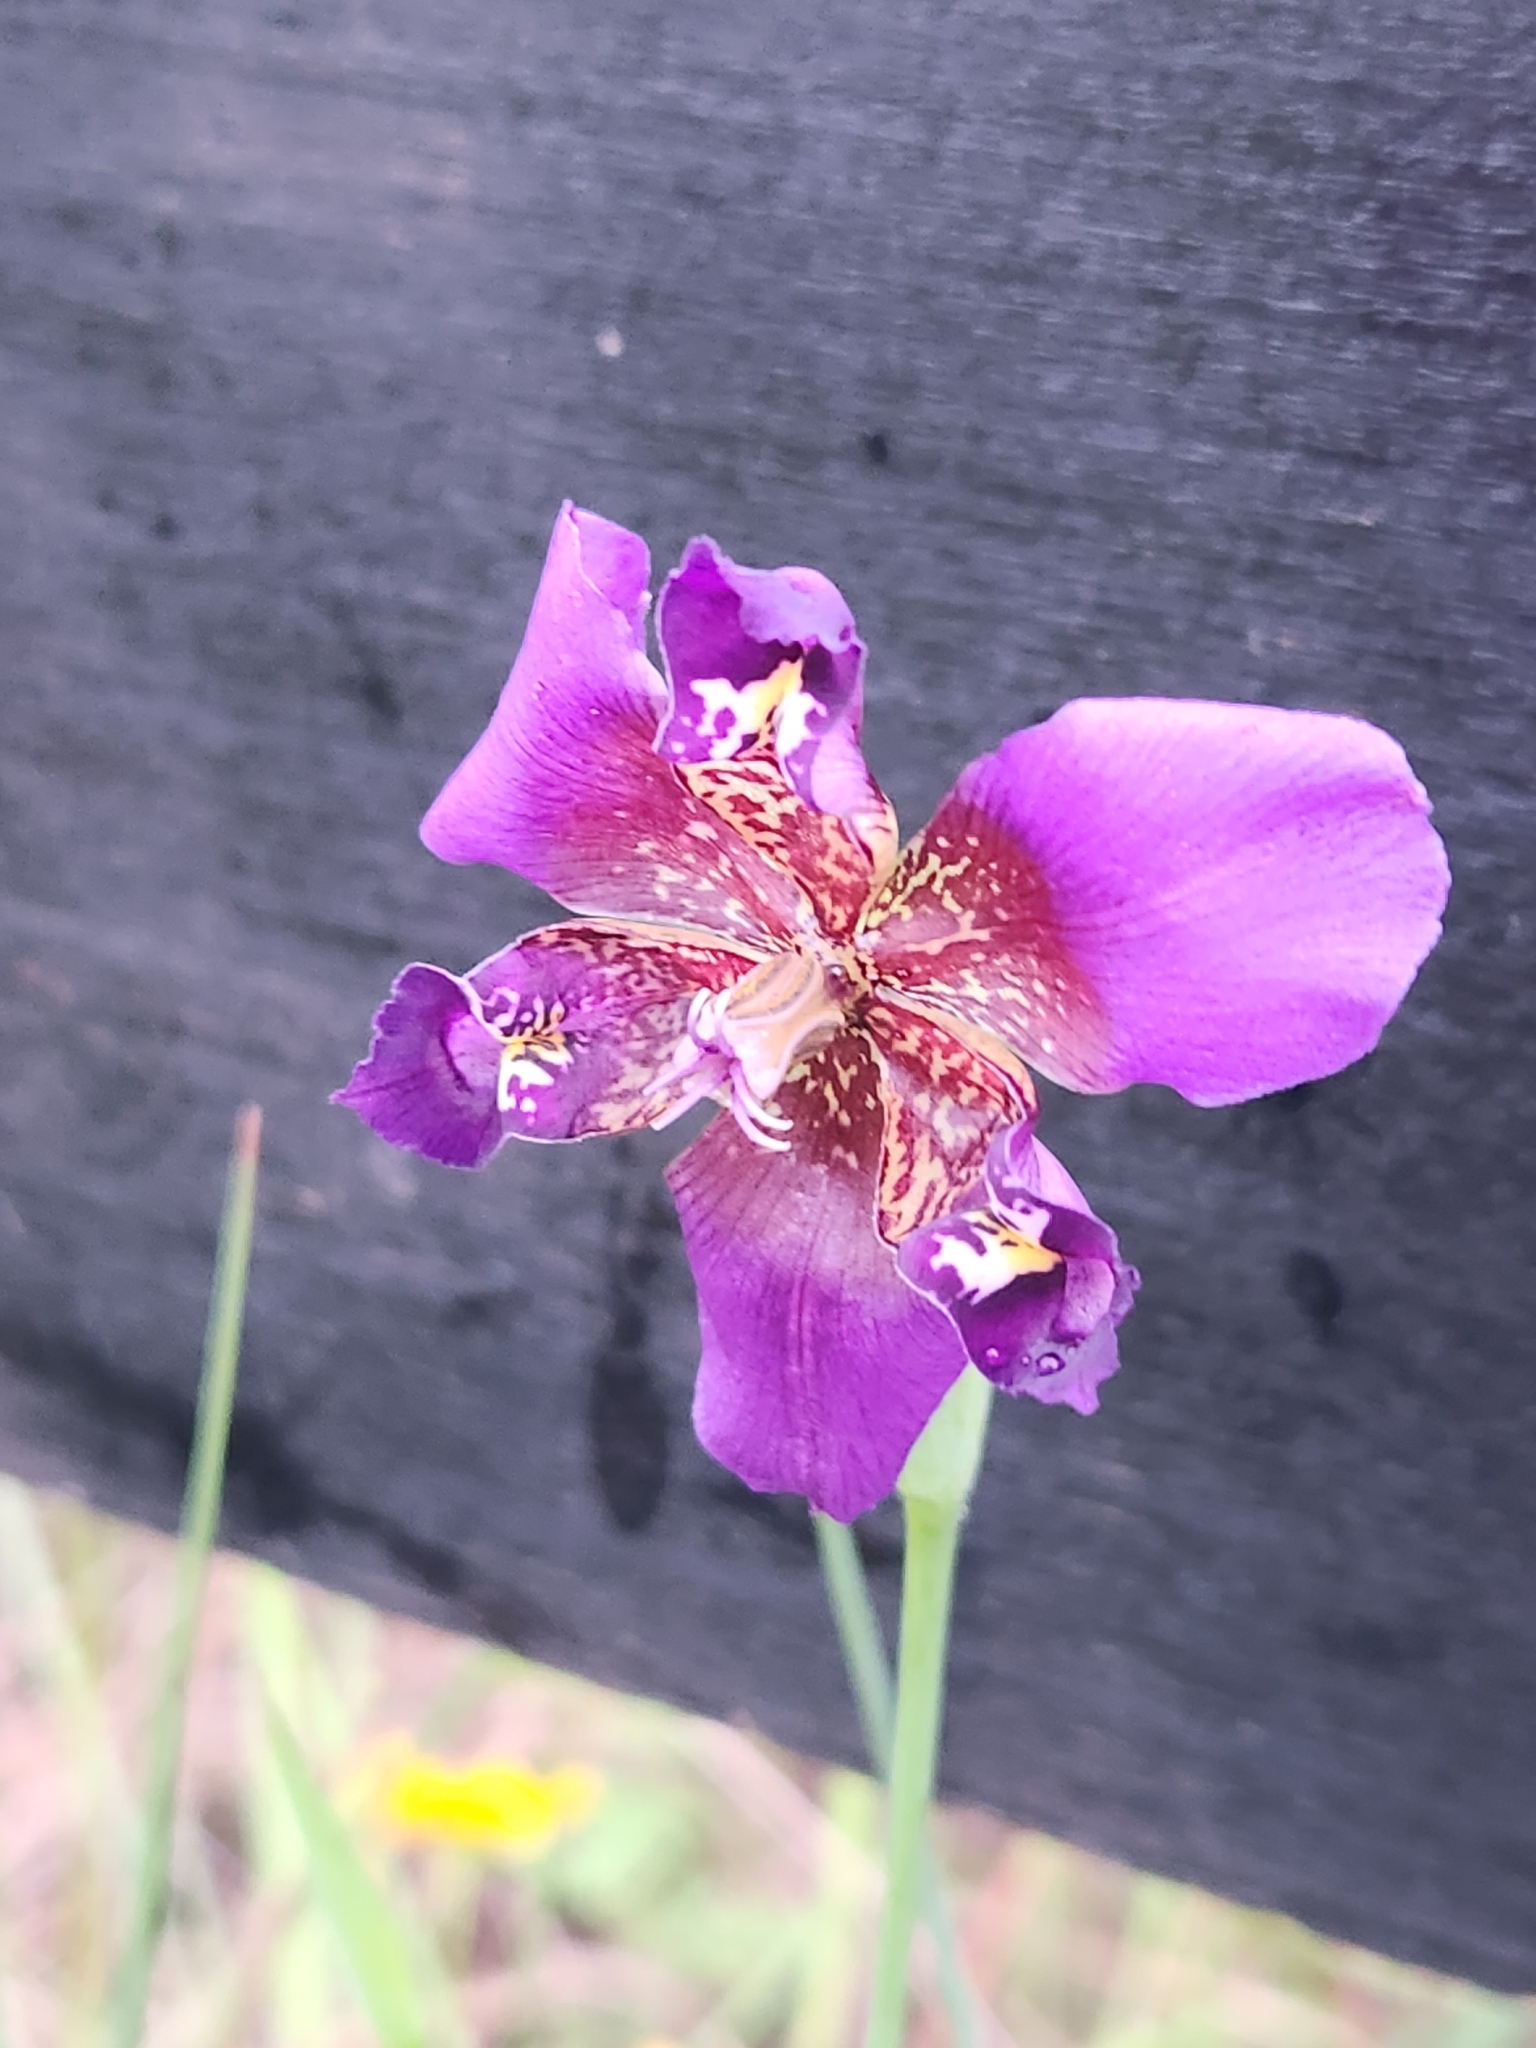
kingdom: Plantae
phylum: Tracheophyta
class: Liliopsida
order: Asparagales
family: Iridaceae
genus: Alophia
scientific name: Alophia drummondii
